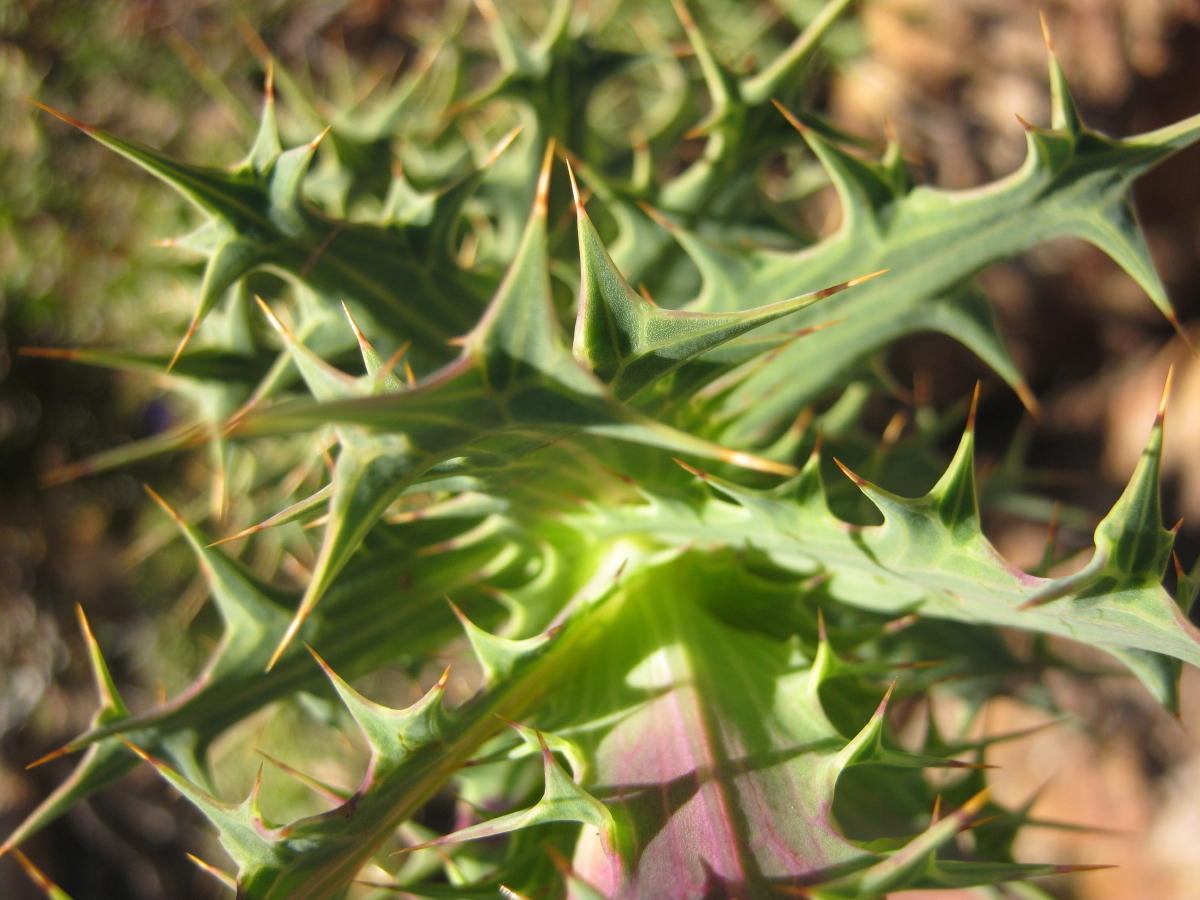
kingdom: Plantae
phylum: Tracheophyta
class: Magnoliopsida
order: Asterales
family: Asteraceae
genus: Berkheya
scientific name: Berkheya cruciata
